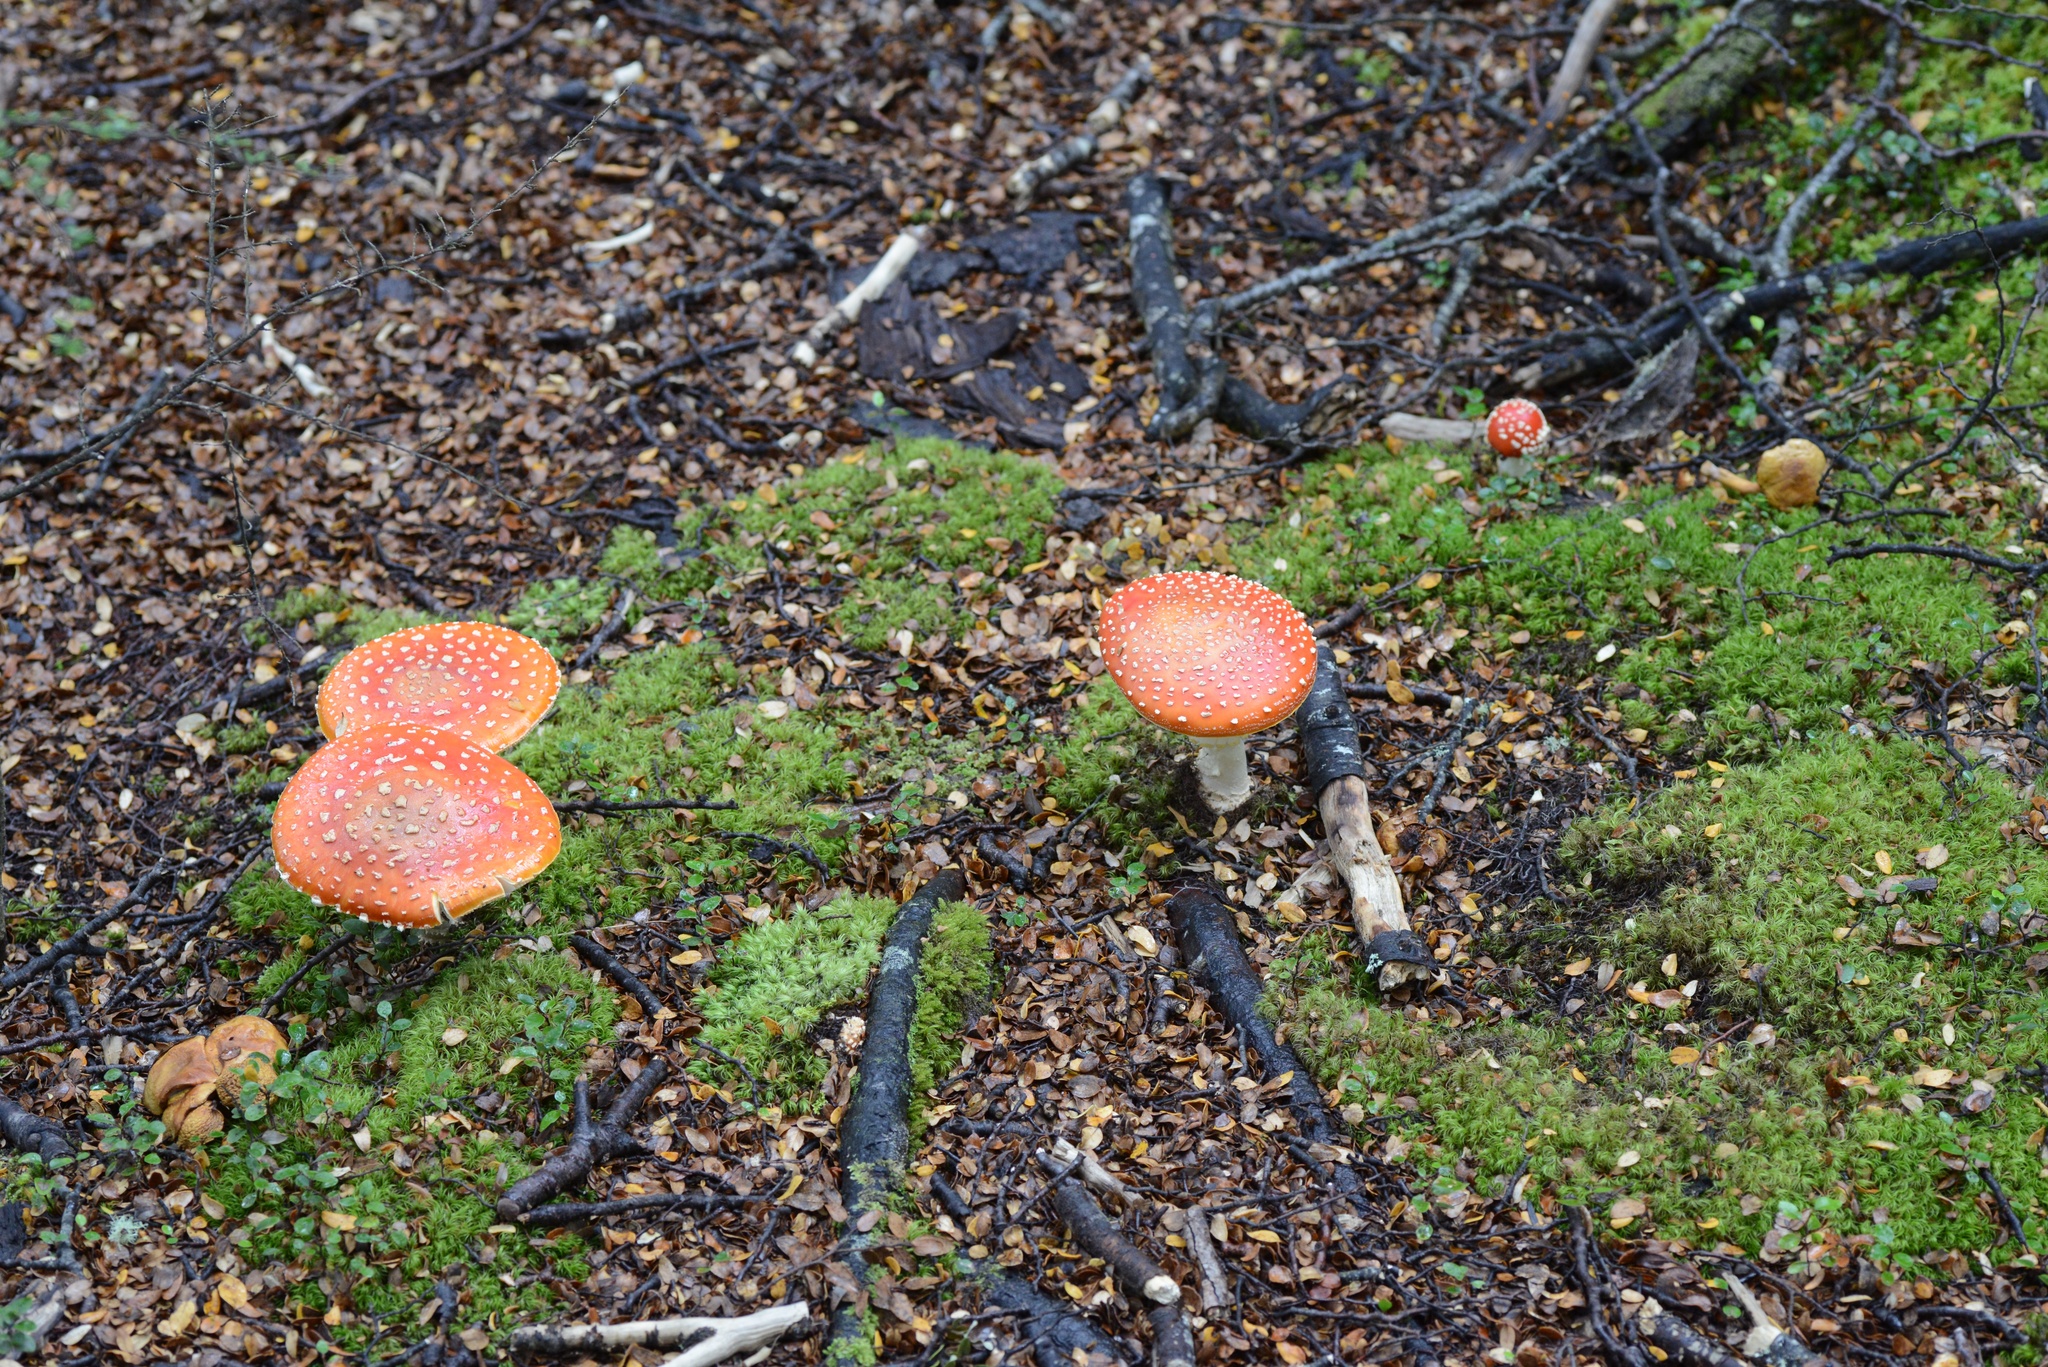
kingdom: Fungi
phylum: Basidiomycota
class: Agaricomycetes
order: Agaricales
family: Amanitaceae
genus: Amanita
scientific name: Amanita muscaria
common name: Fly agaric
